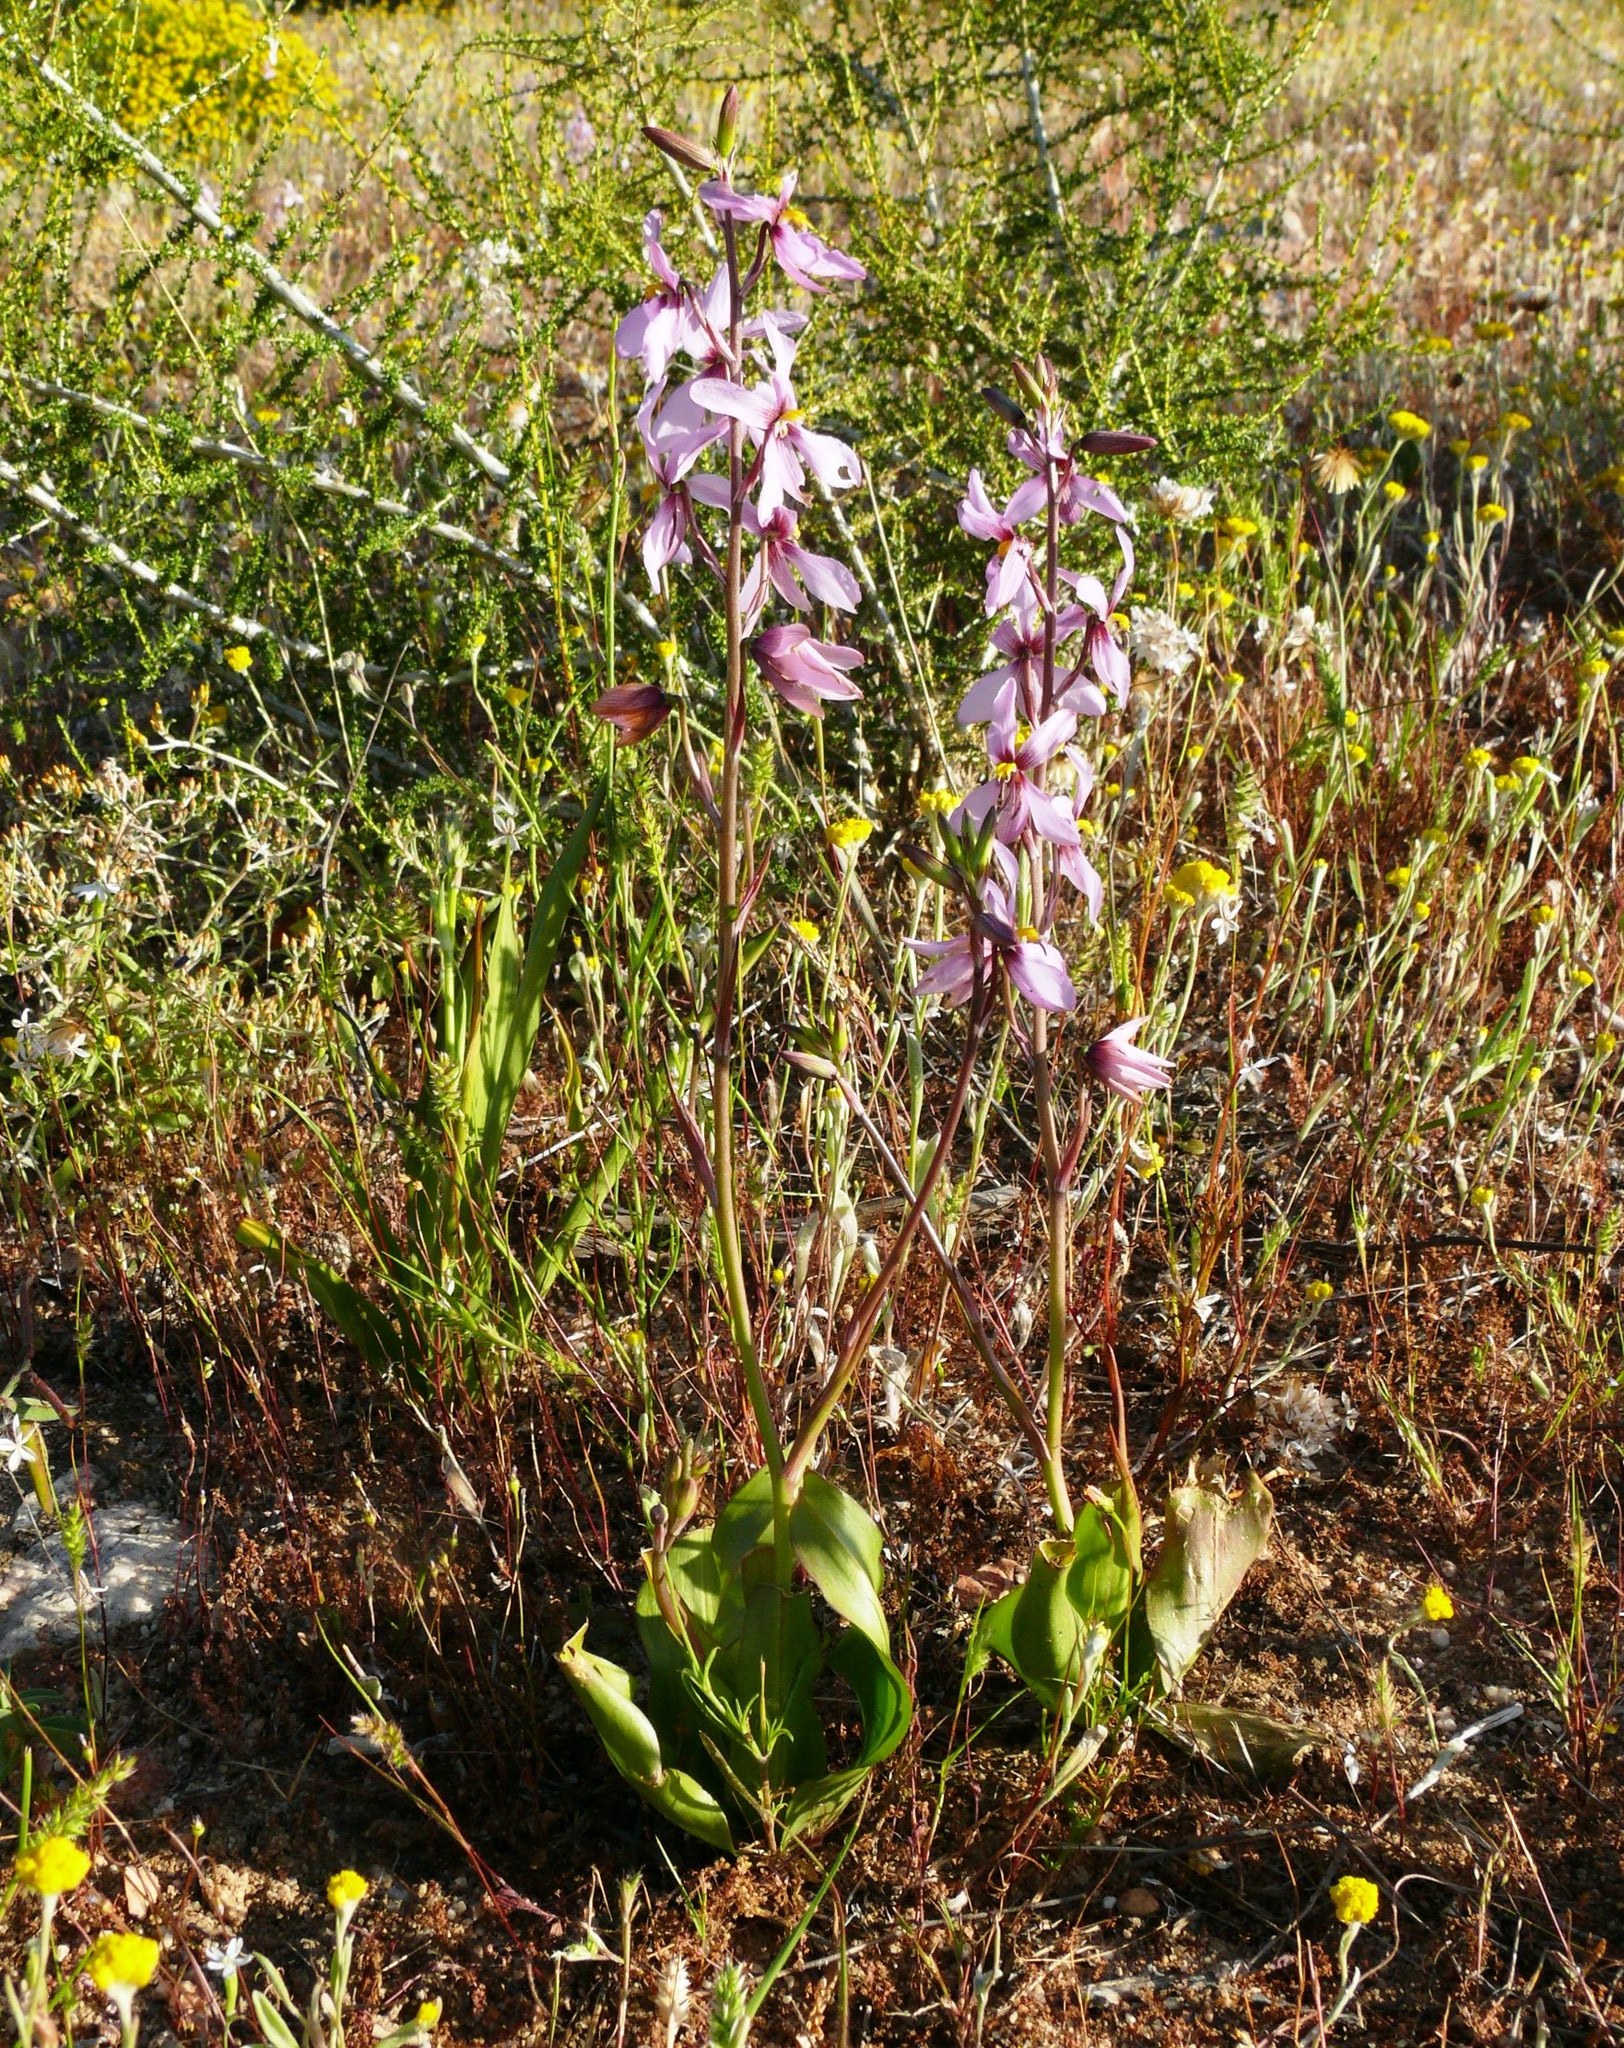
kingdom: Plantae
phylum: Tracheophyta
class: Liliopsida
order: Asparagales
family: Tecophilaeaceae
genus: Cyanella
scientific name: Cyanella orchidiformis
